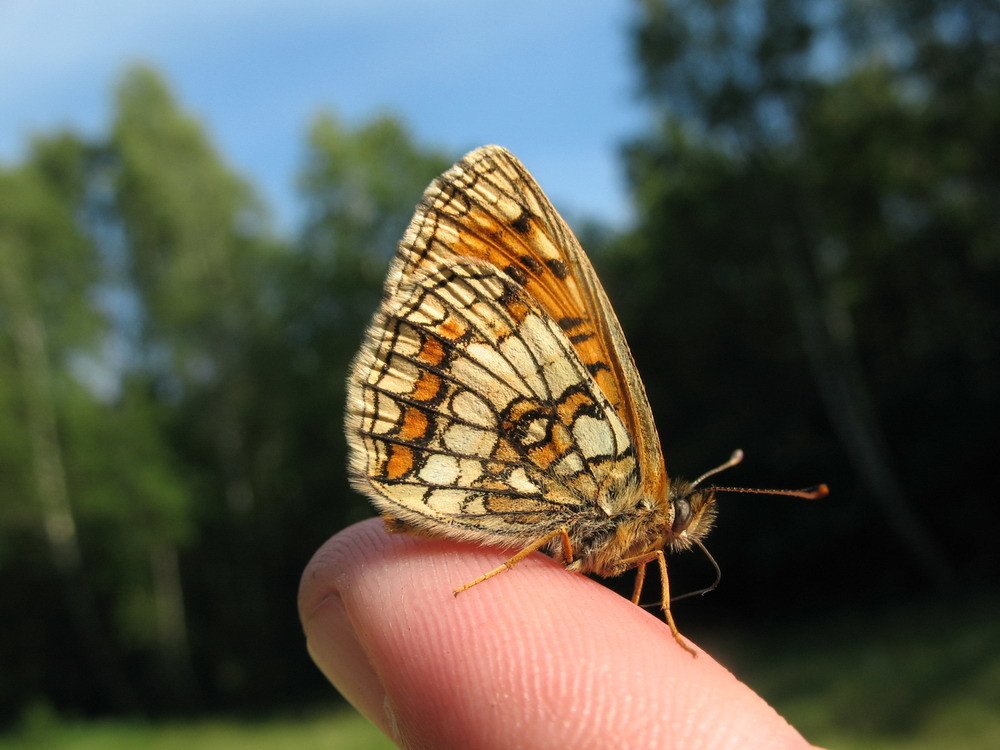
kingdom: Animalia
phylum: Arthropoda
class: Insecta
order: Lepidoptera
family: Nymphalidae
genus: Melitaea
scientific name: Melitaea athalia
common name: Heath fritillary
